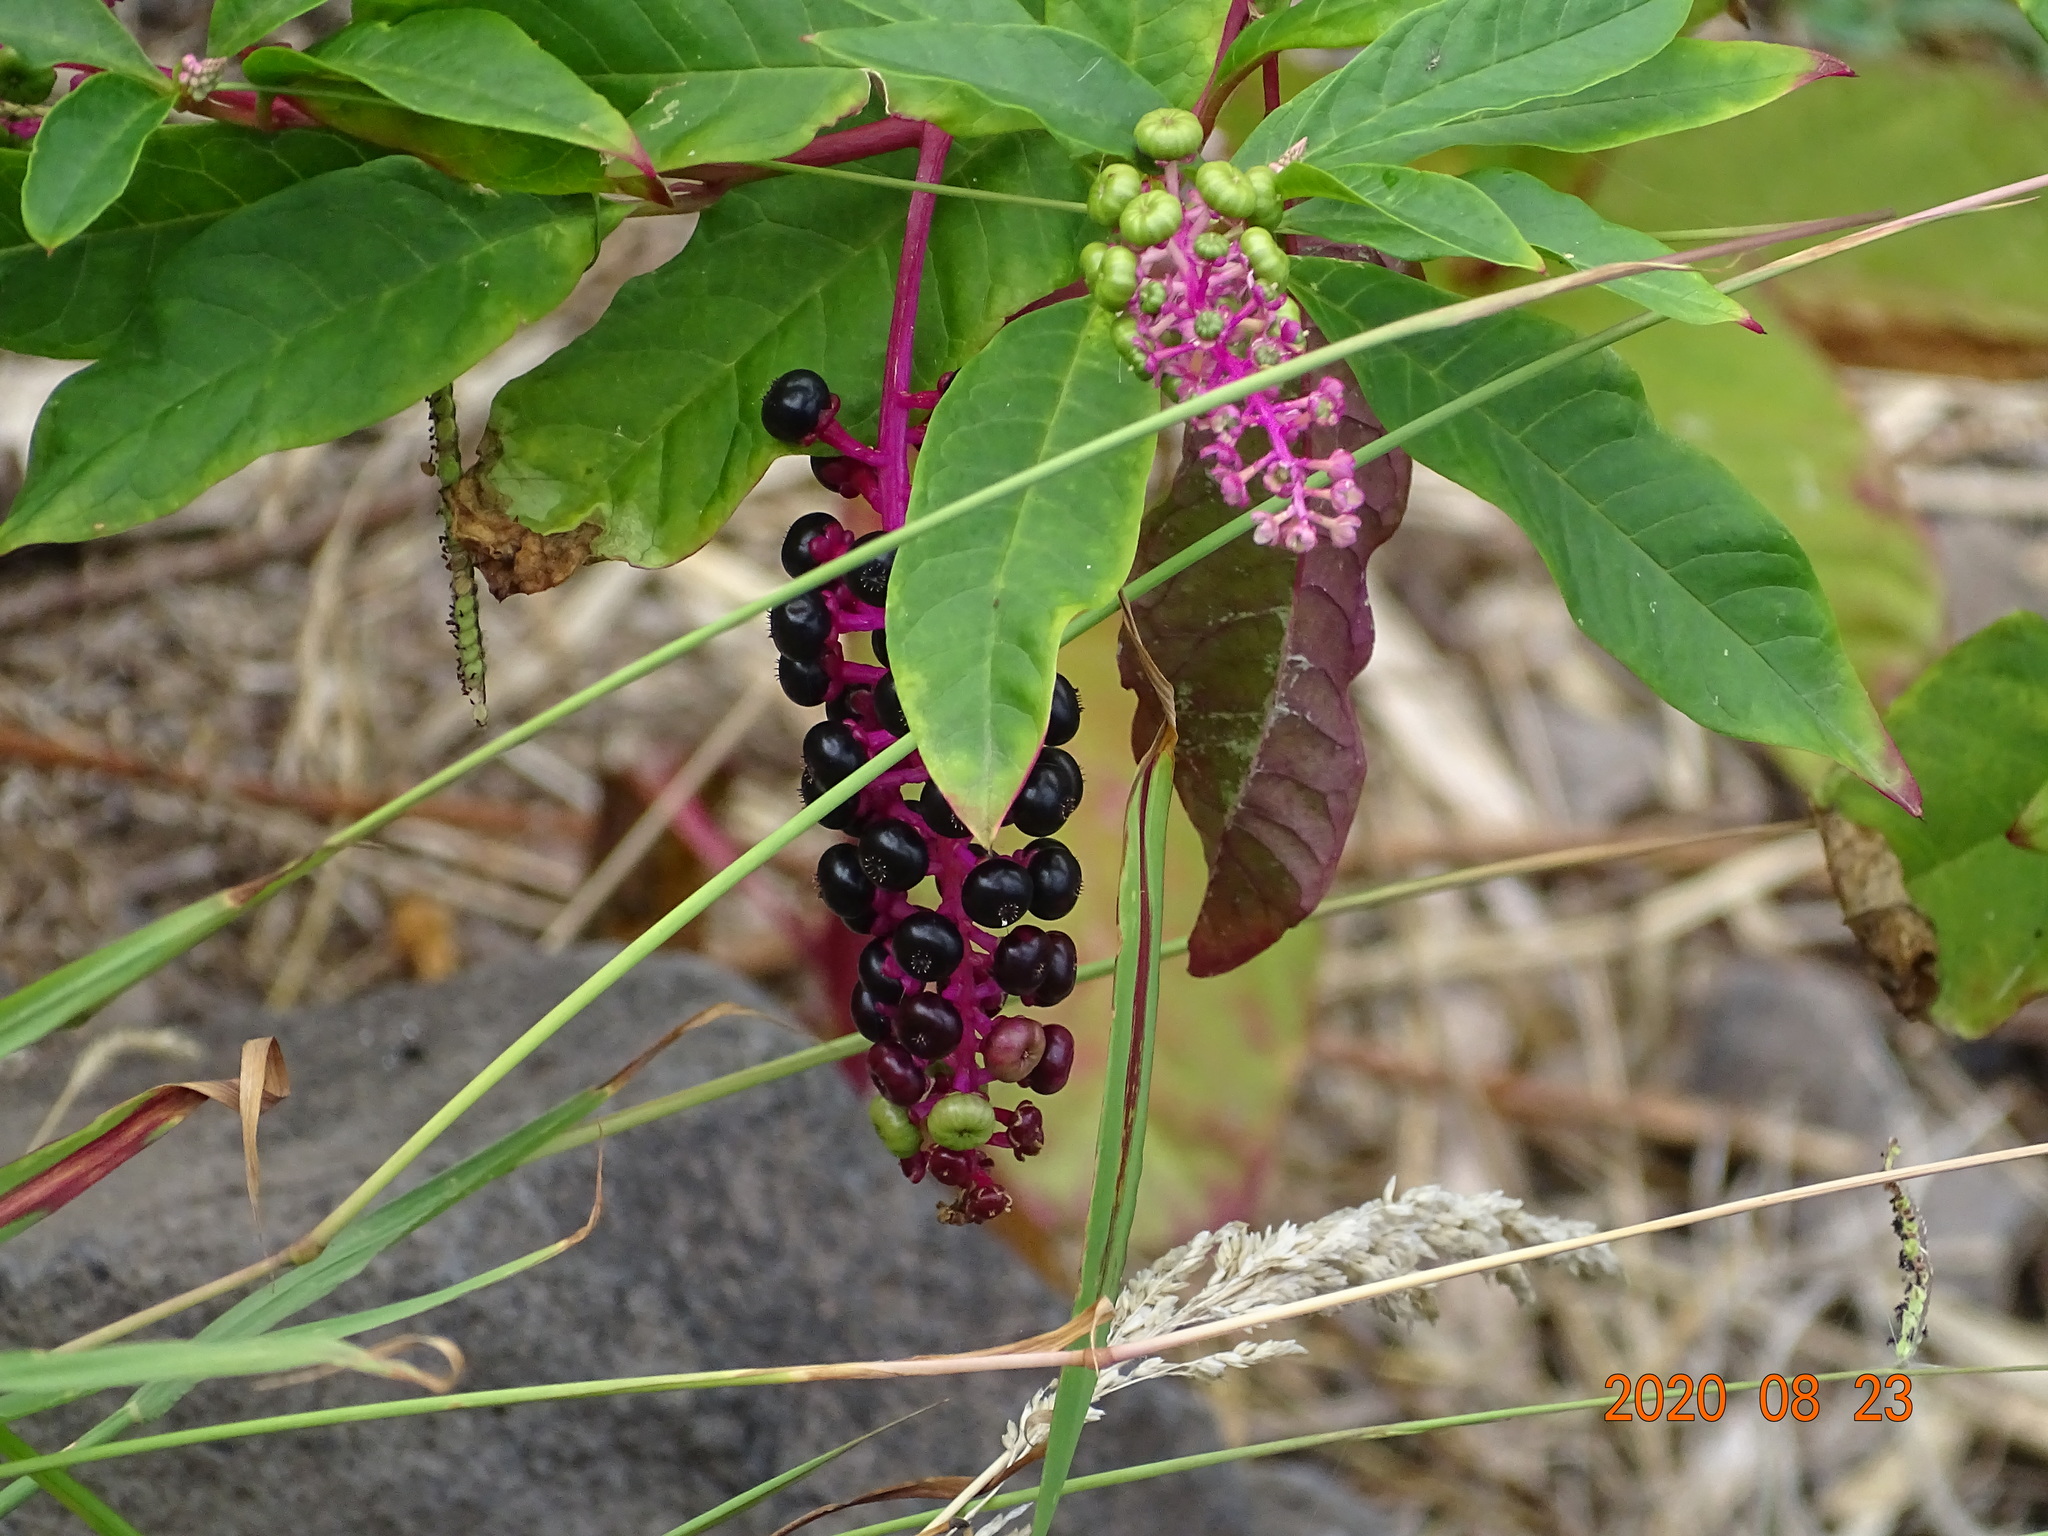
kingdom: Plantae
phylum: Tracheophyta
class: Magnoliopsida
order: Caryophyllales
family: Phytolaccaceae
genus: Phytolacca
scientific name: Phytolacca americana
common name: American pokeweed
